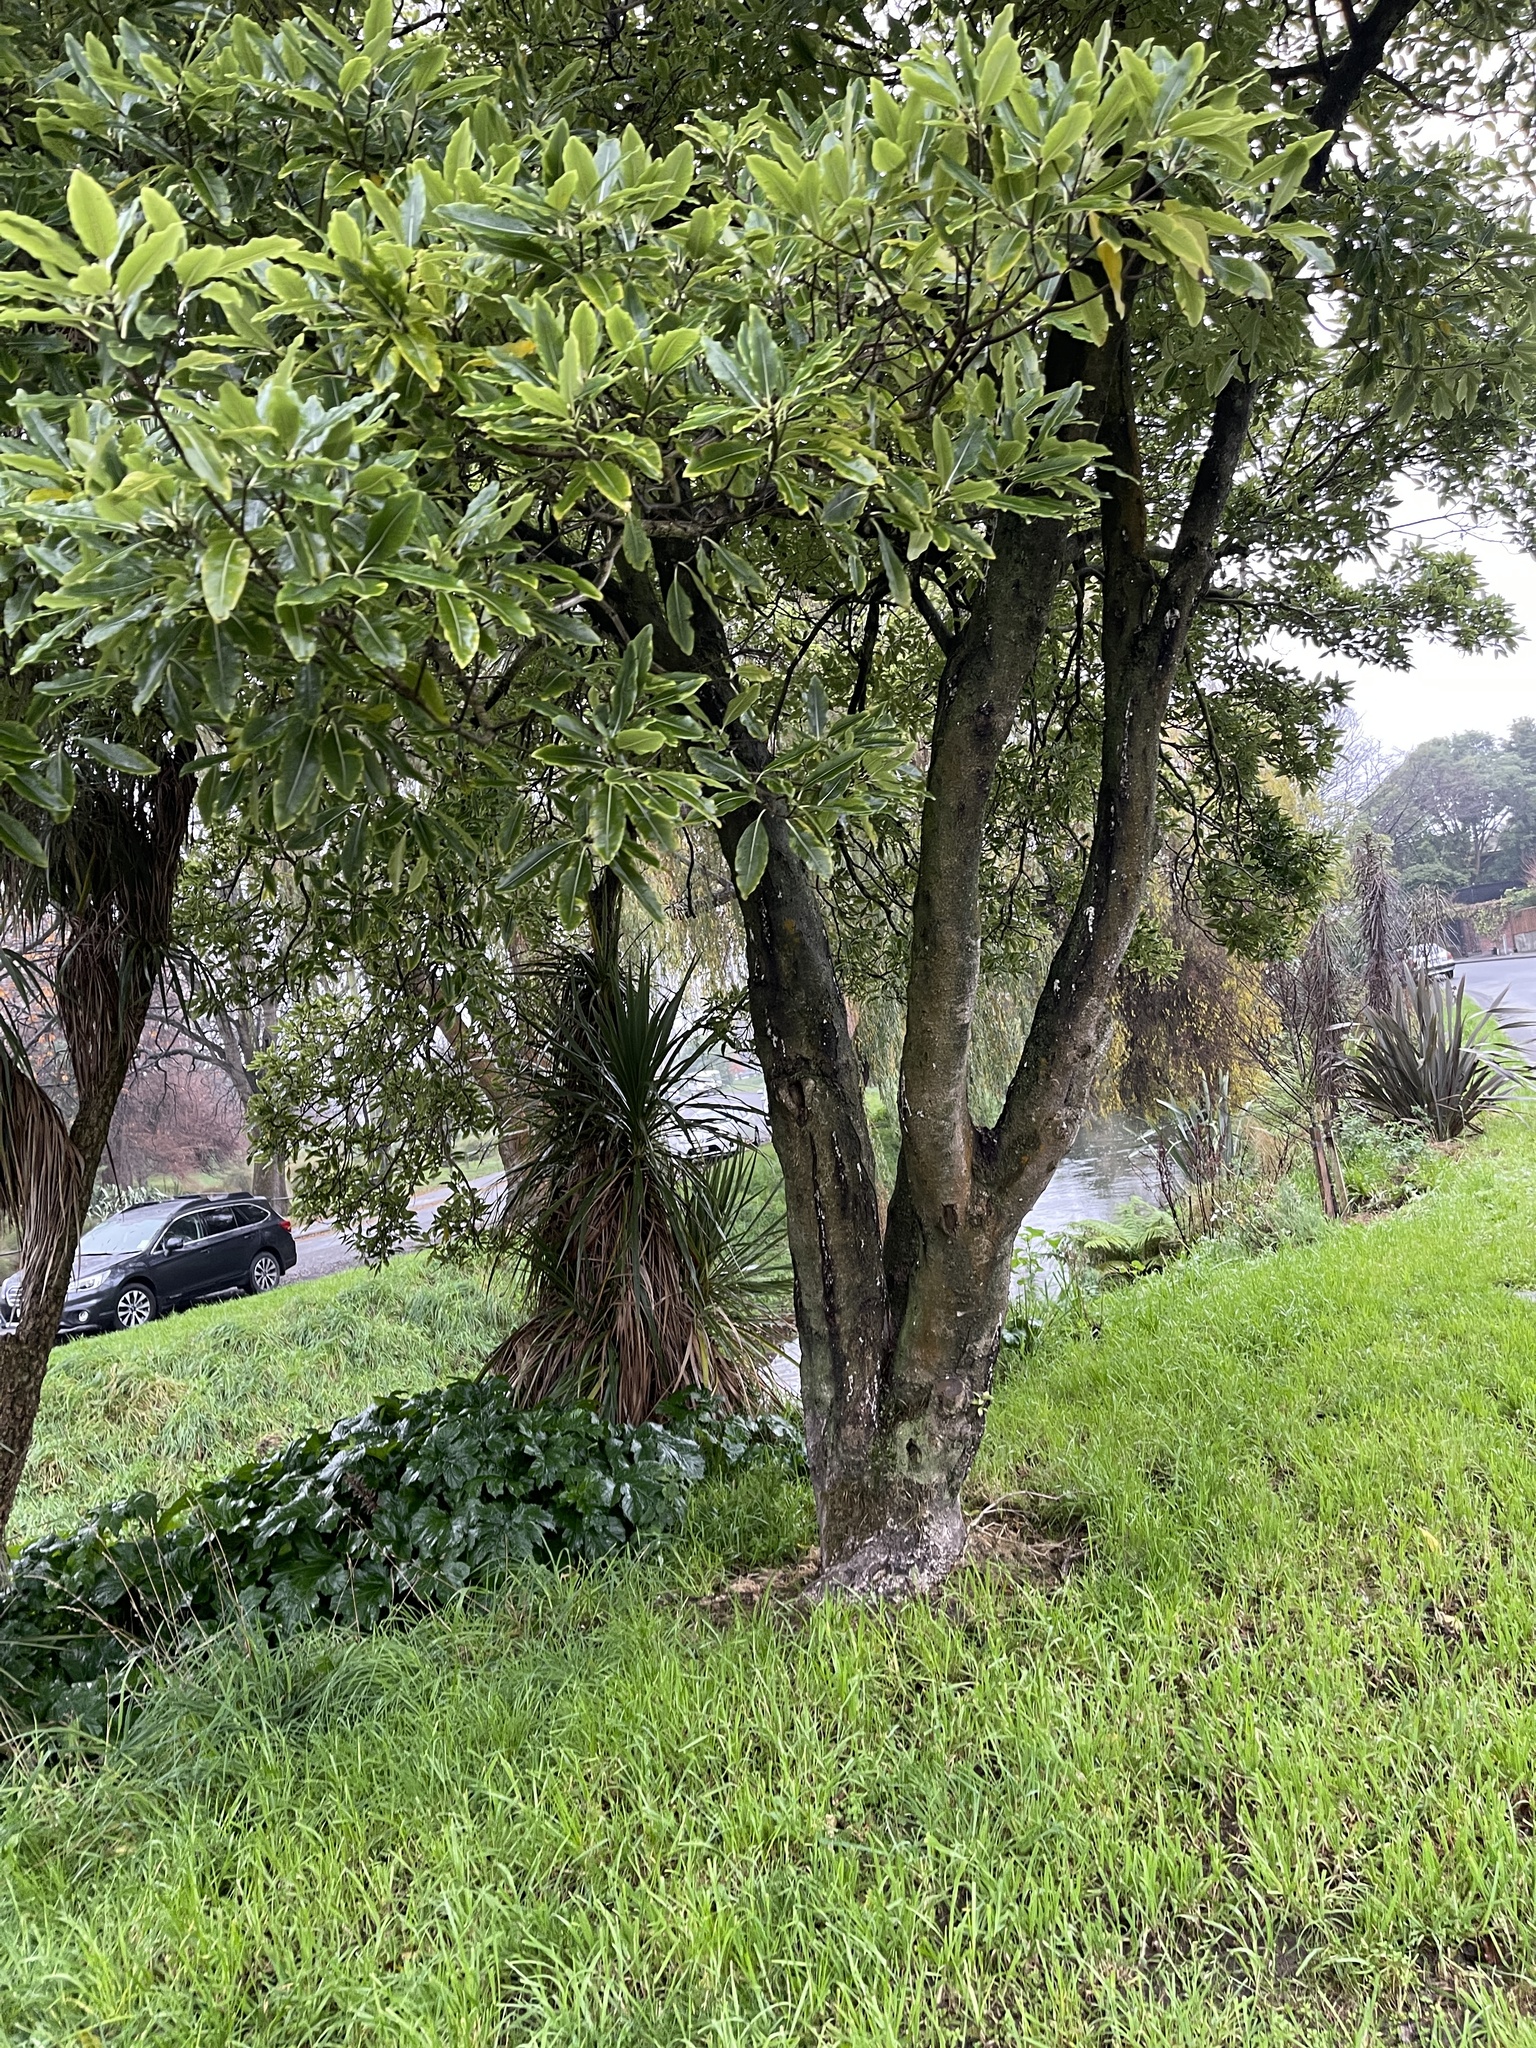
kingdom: Plantae
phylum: Tracheophyta
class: Magnoliopsida
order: Apiales
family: Pittosporaceae
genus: Pittosporum
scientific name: Pittosporum eugenioides
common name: Lemonwood
